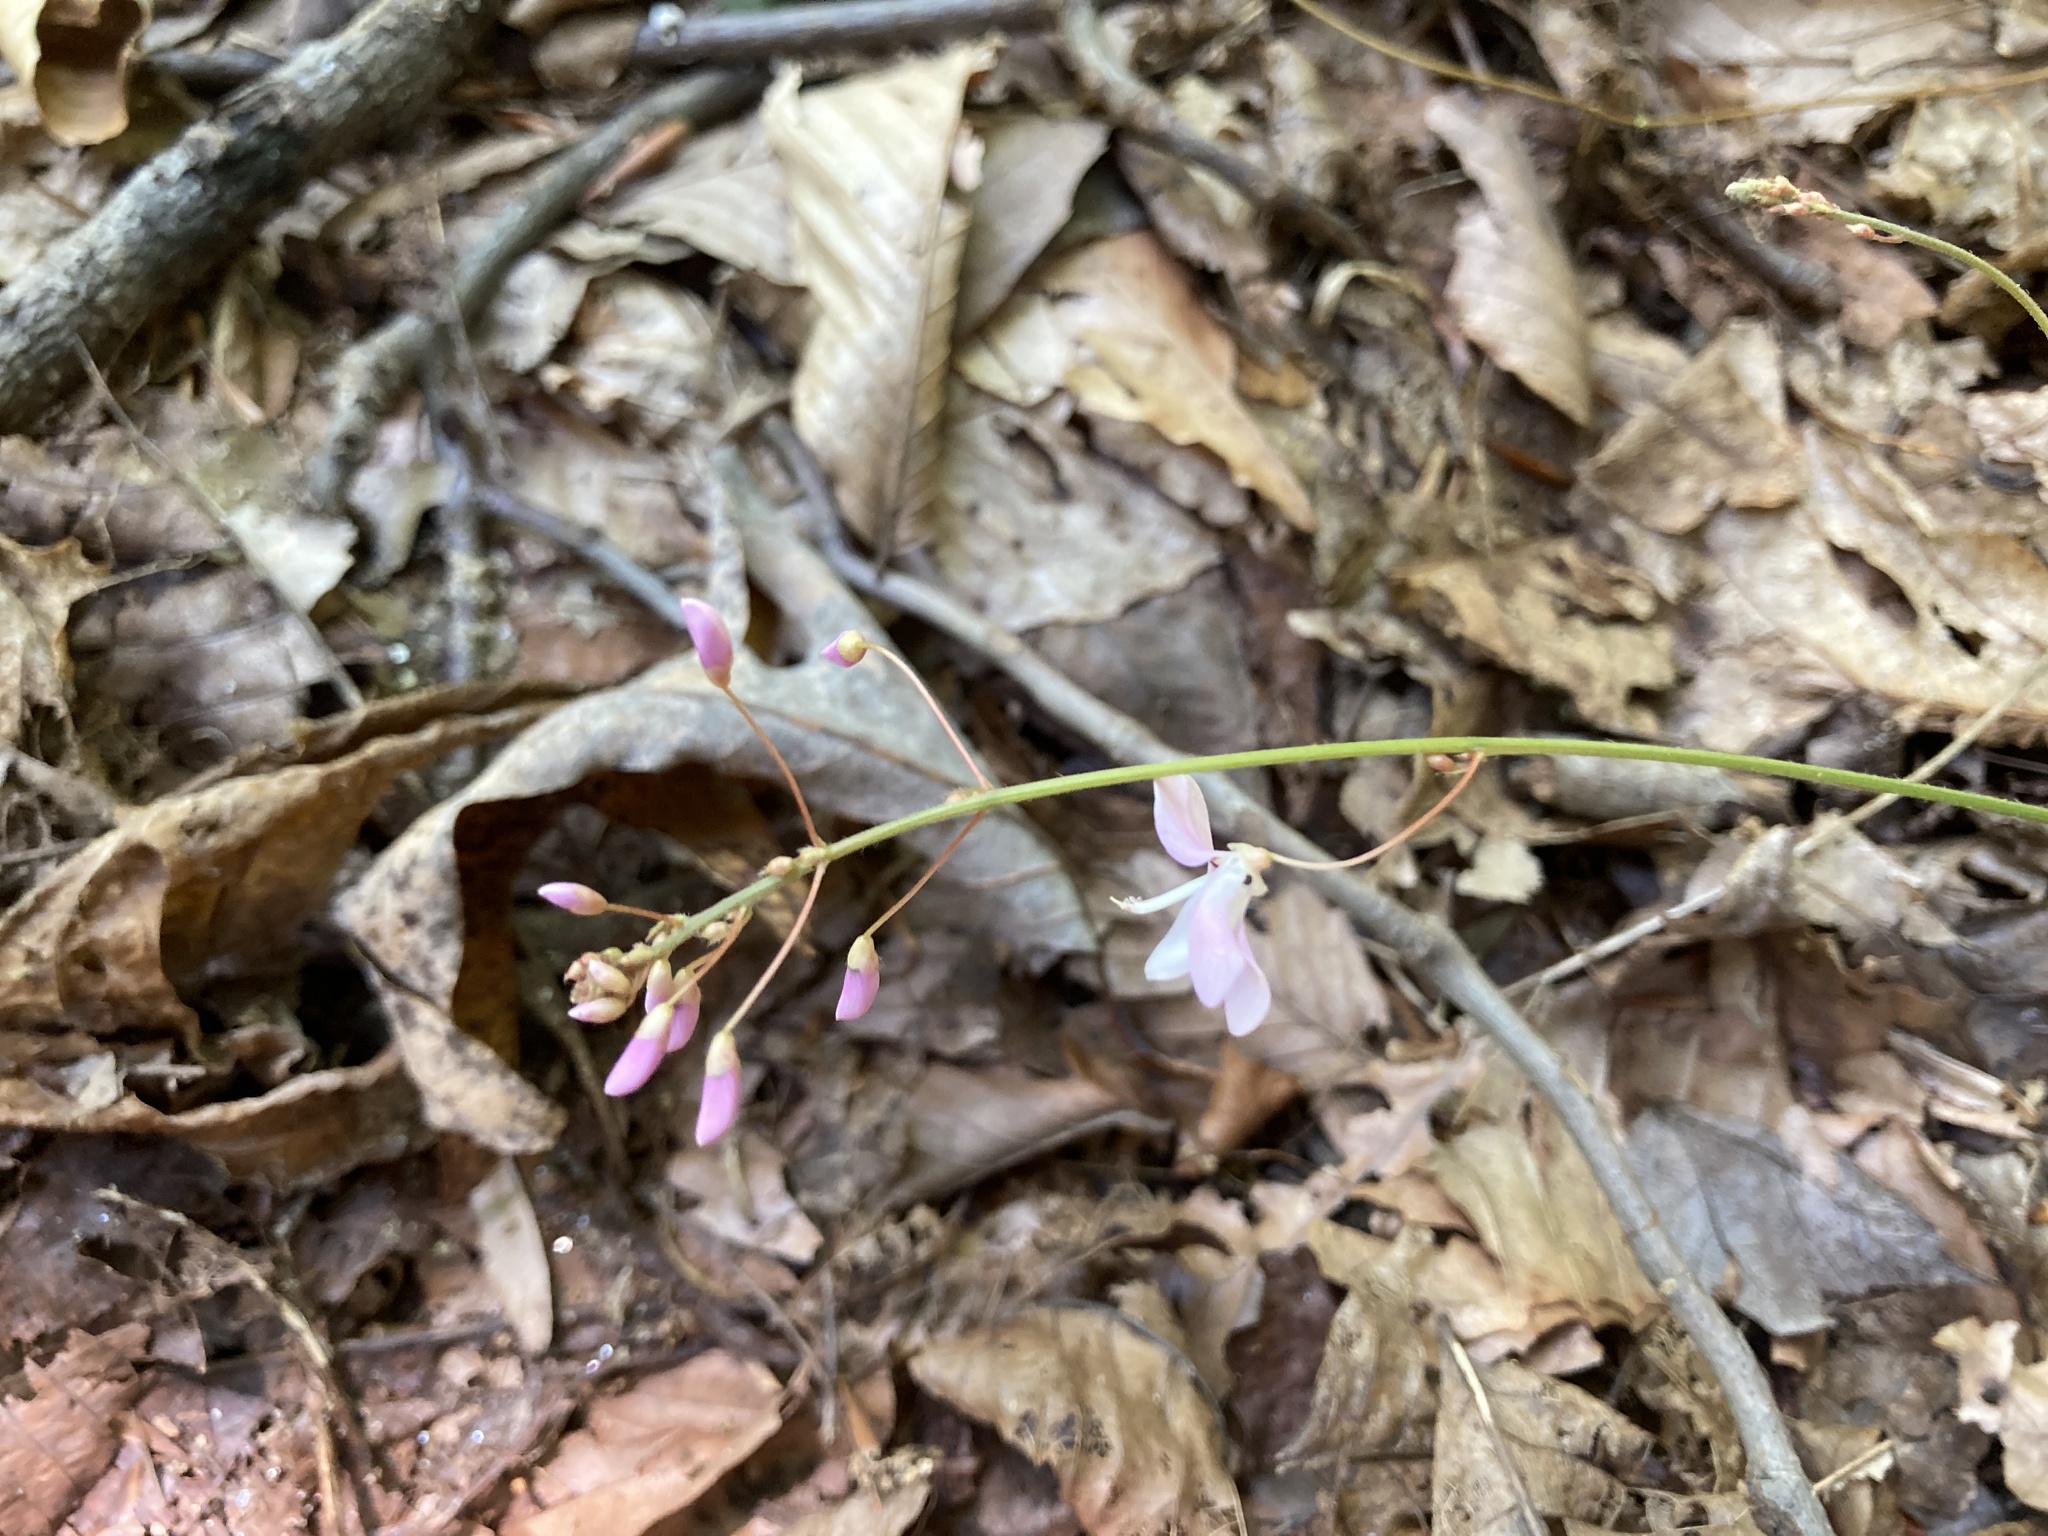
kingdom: Plantae
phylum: Tracheophyta
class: Magnoliopsida
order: Fabales
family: Fabaceae
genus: Hylodesmum
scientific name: Hylodesmum nudiflorum
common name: Bare-stemmed tick-trefoil
